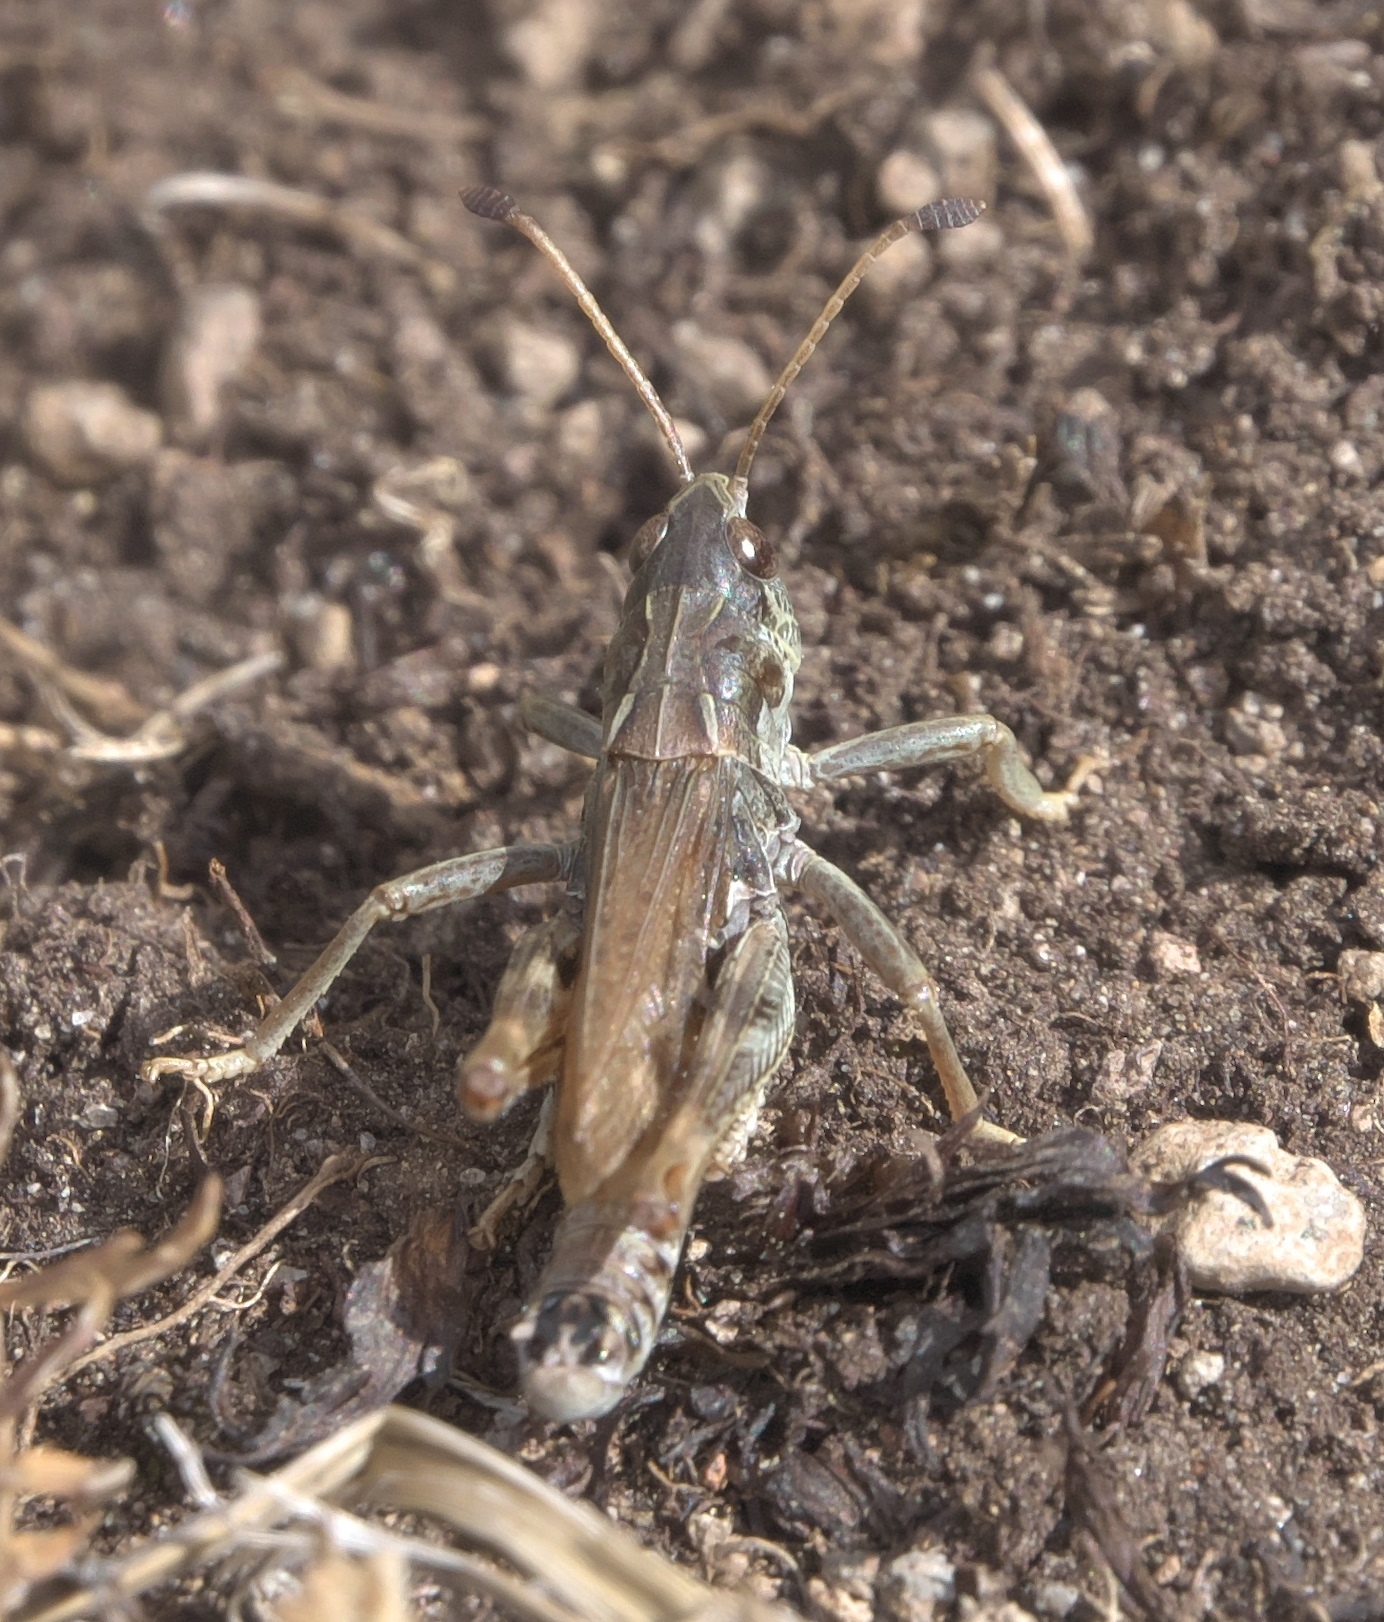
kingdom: Animalia
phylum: Arthropoda
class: Insecta
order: Orthoptera
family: Acrididae
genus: Aeropedellus
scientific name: Aeropedellus clavatus
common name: Clubhorned grasshopper
